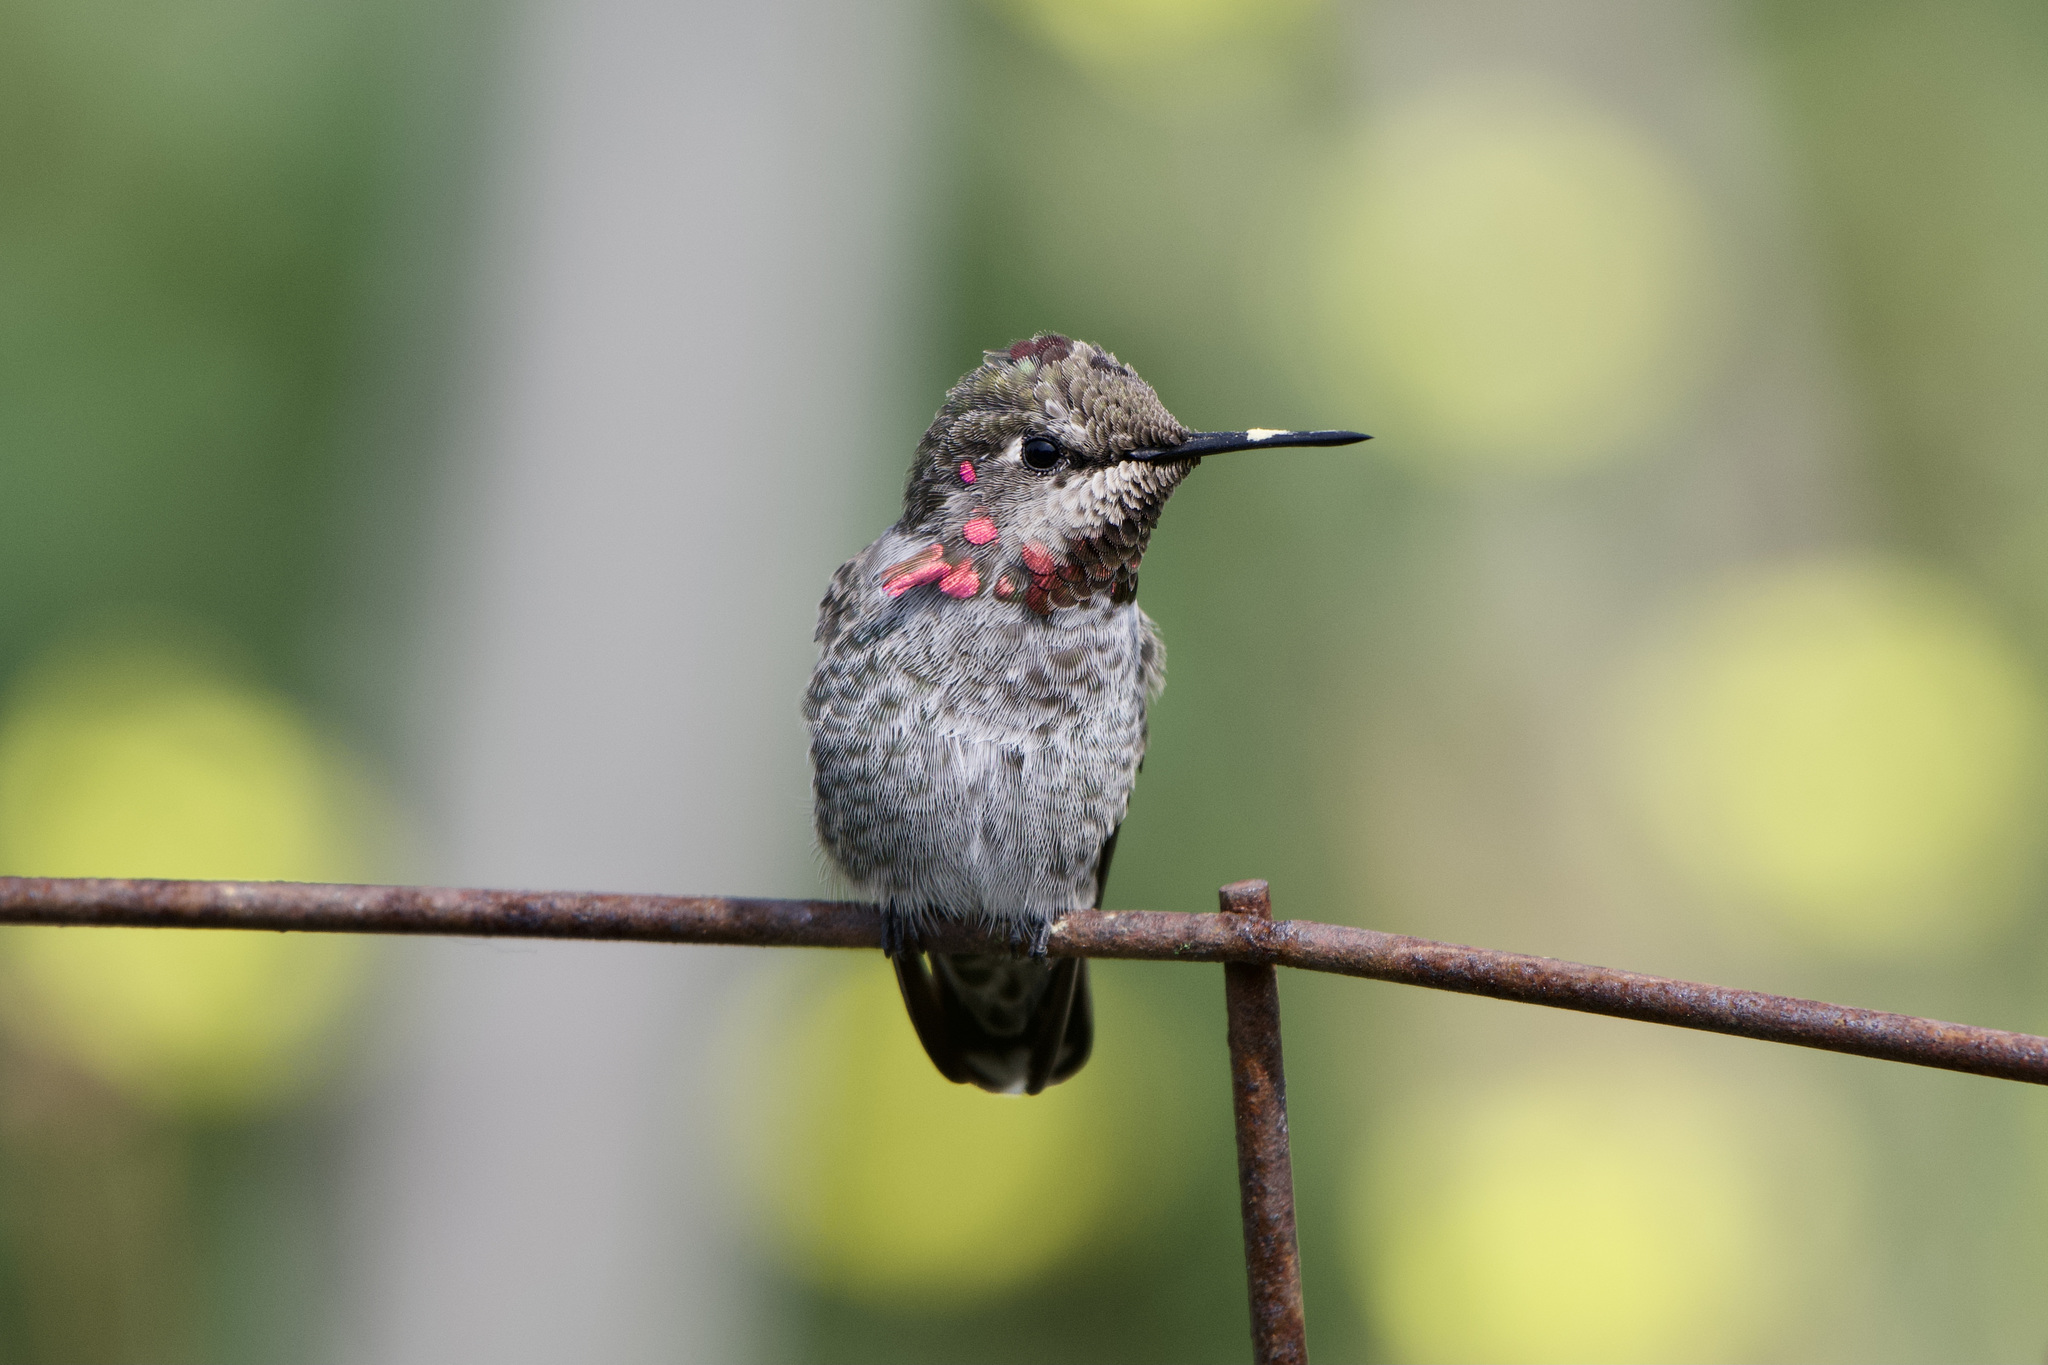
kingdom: Animalia
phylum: Chordata
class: Aves
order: Apodiformes
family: Trochilidae
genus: Calypte
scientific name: Calypte anna
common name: Anna's hummingbird
